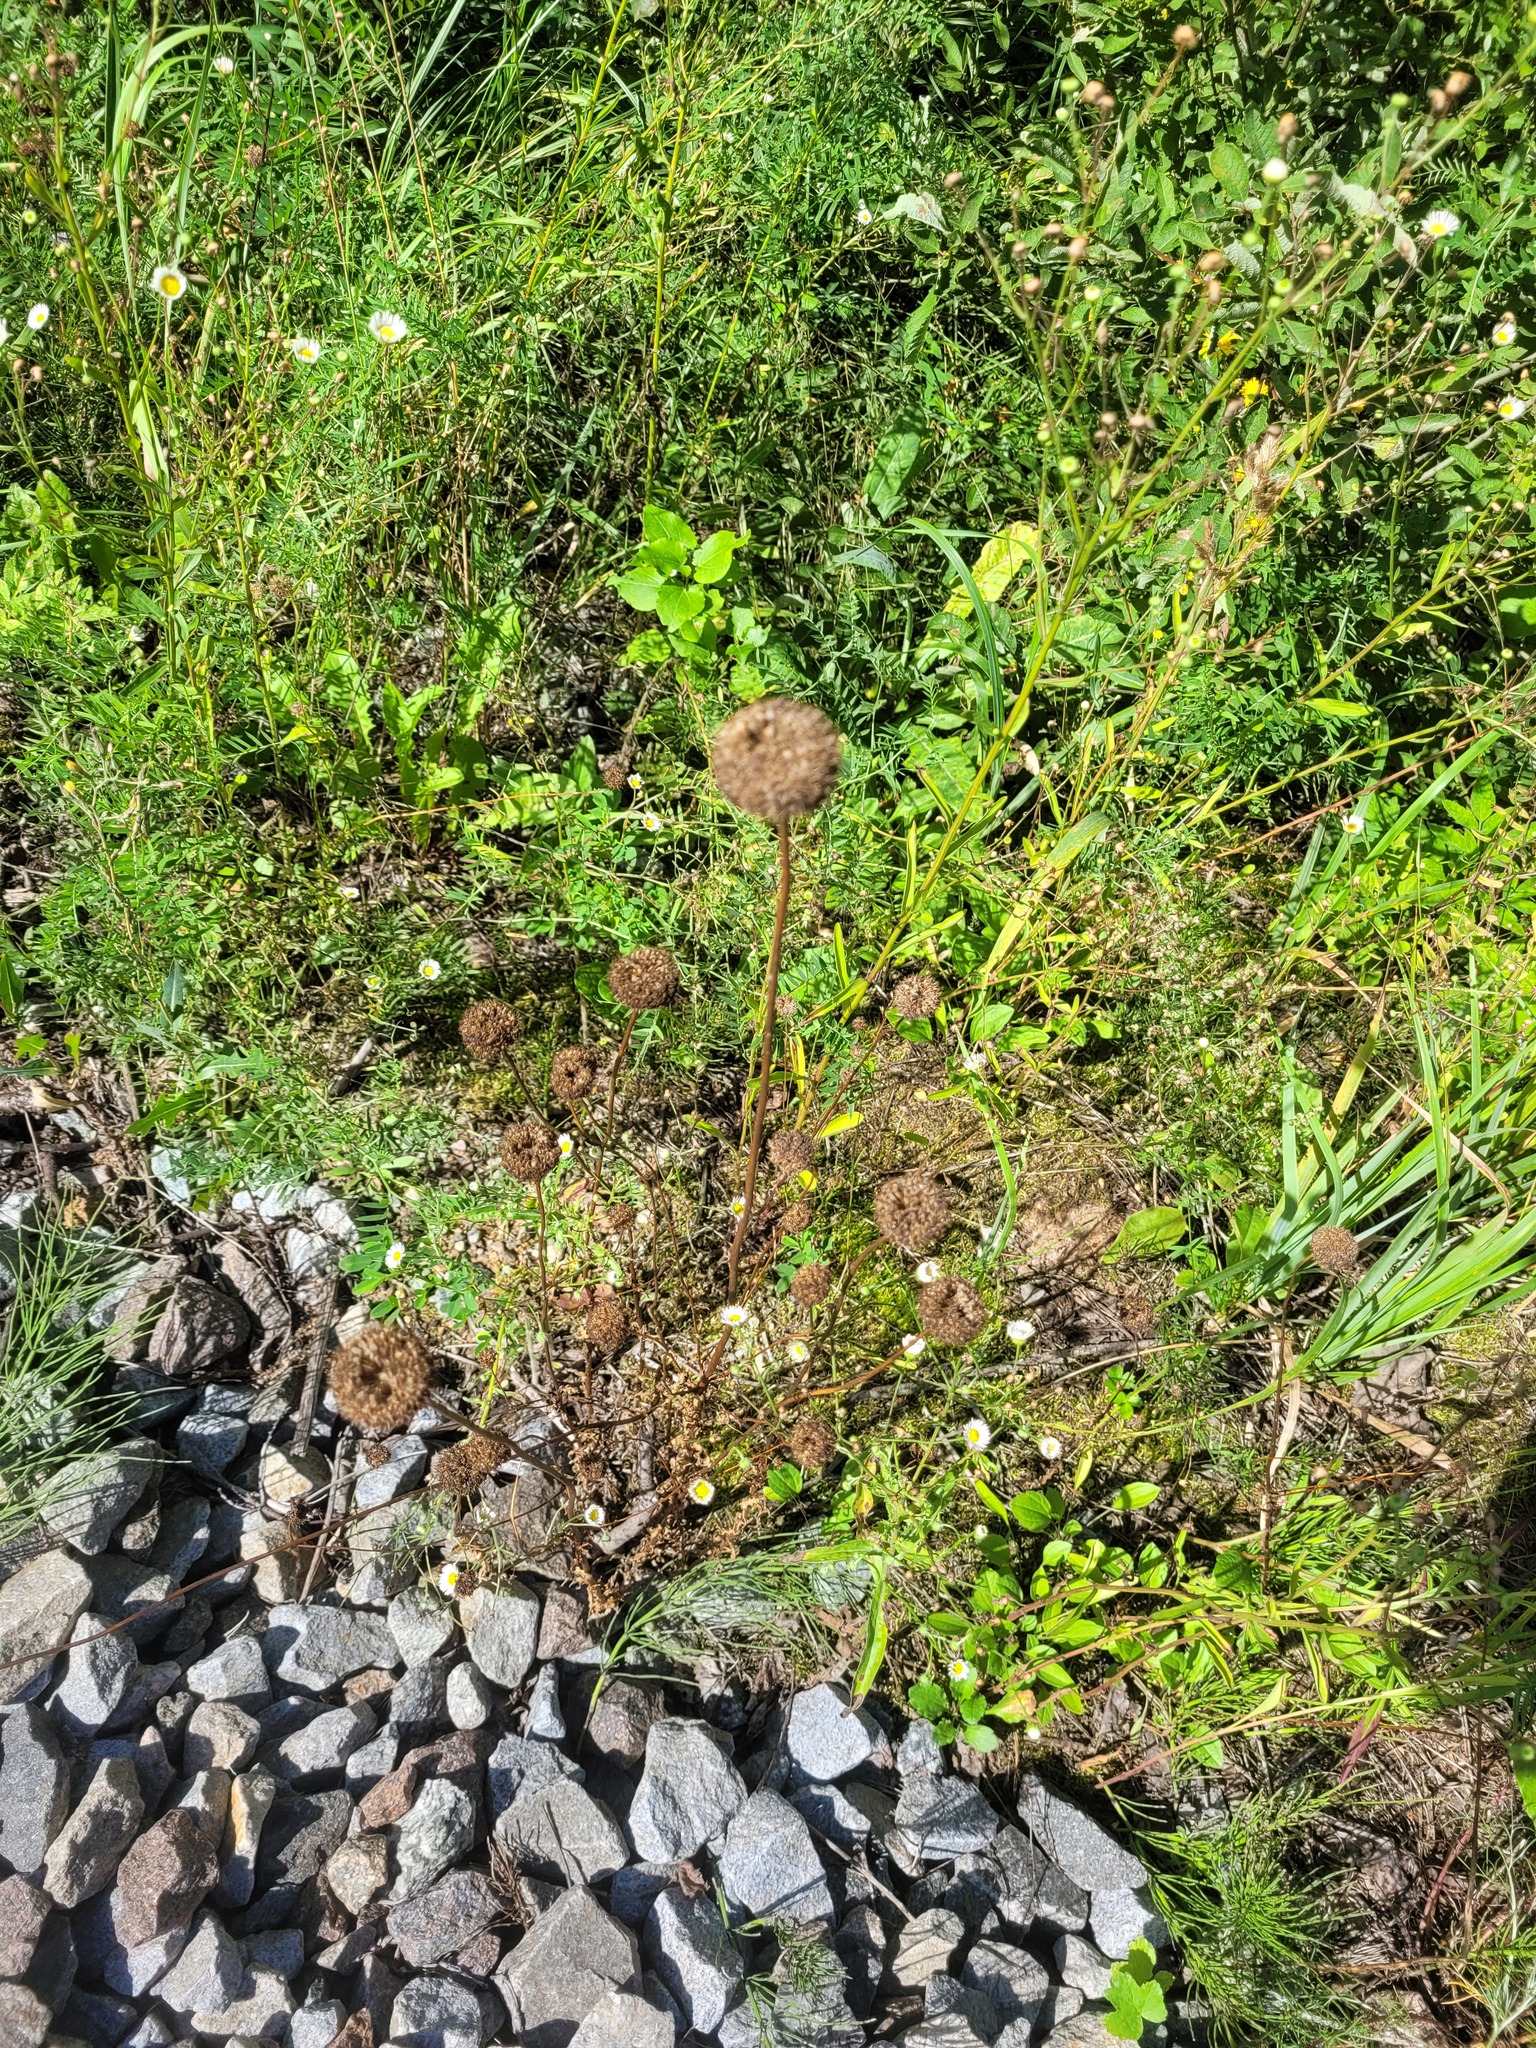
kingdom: Plantae
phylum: Tracheophyta
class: Magnoliopsida
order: Asterales
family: Campanulaceae
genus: Jasione
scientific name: Jasione montana
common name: Sheep's-bit
